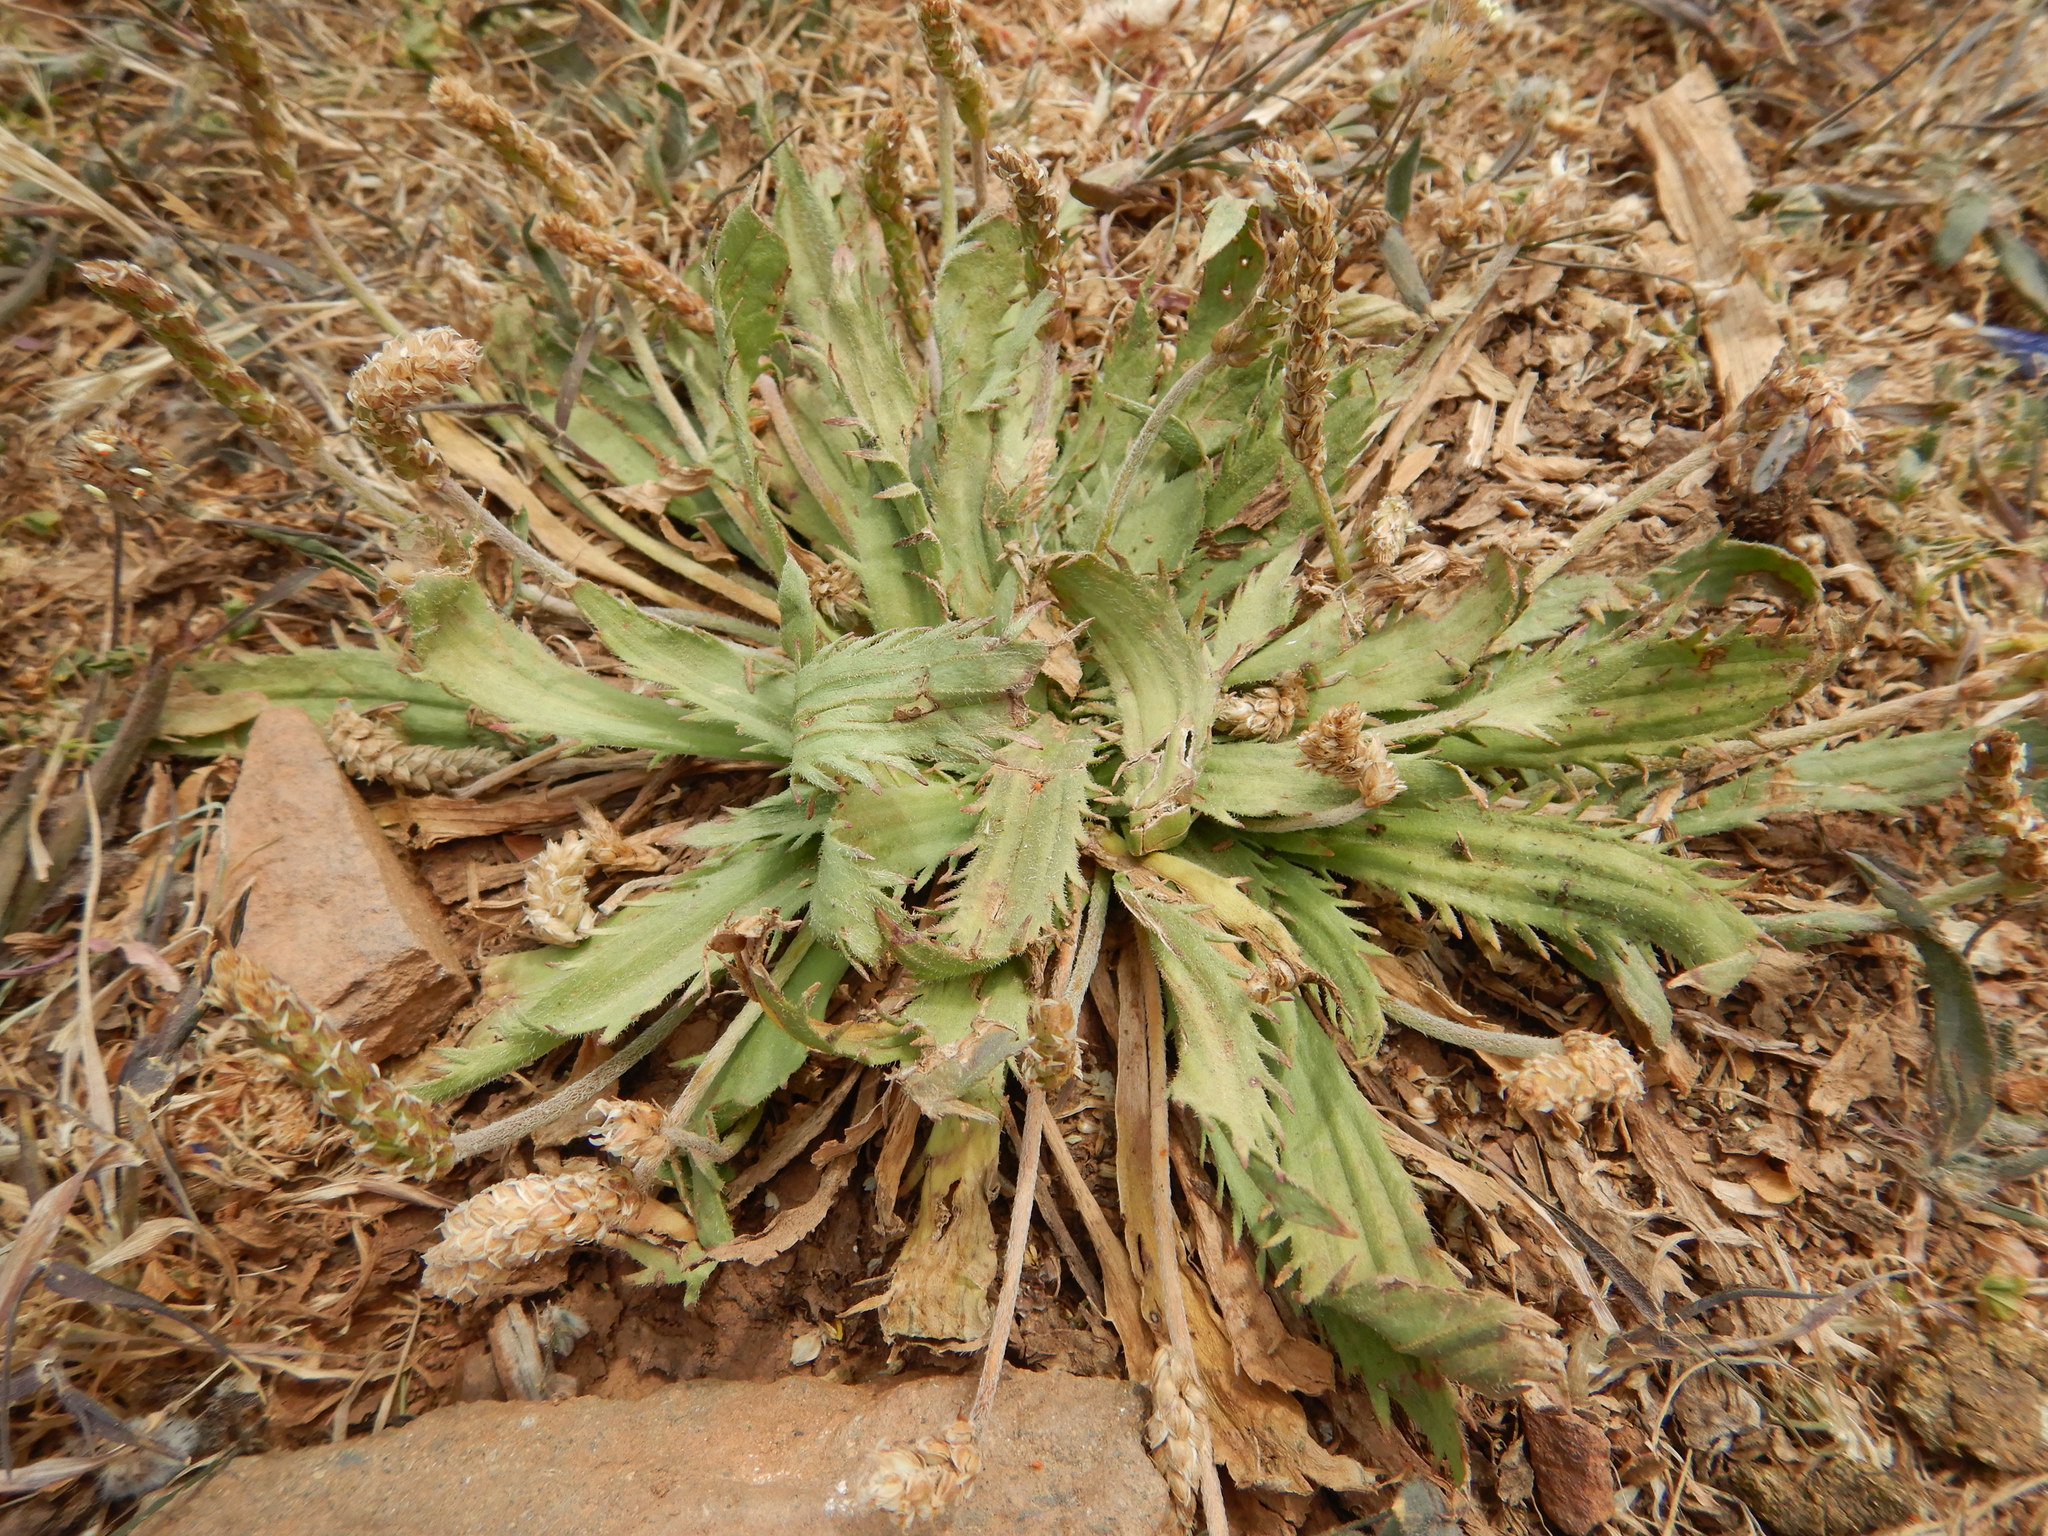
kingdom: Plantae
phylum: Tracheophyta
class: Magnoliopsida
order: Lamiales
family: Plantaginaceae
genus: Plantago
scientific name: Plantago serraria
